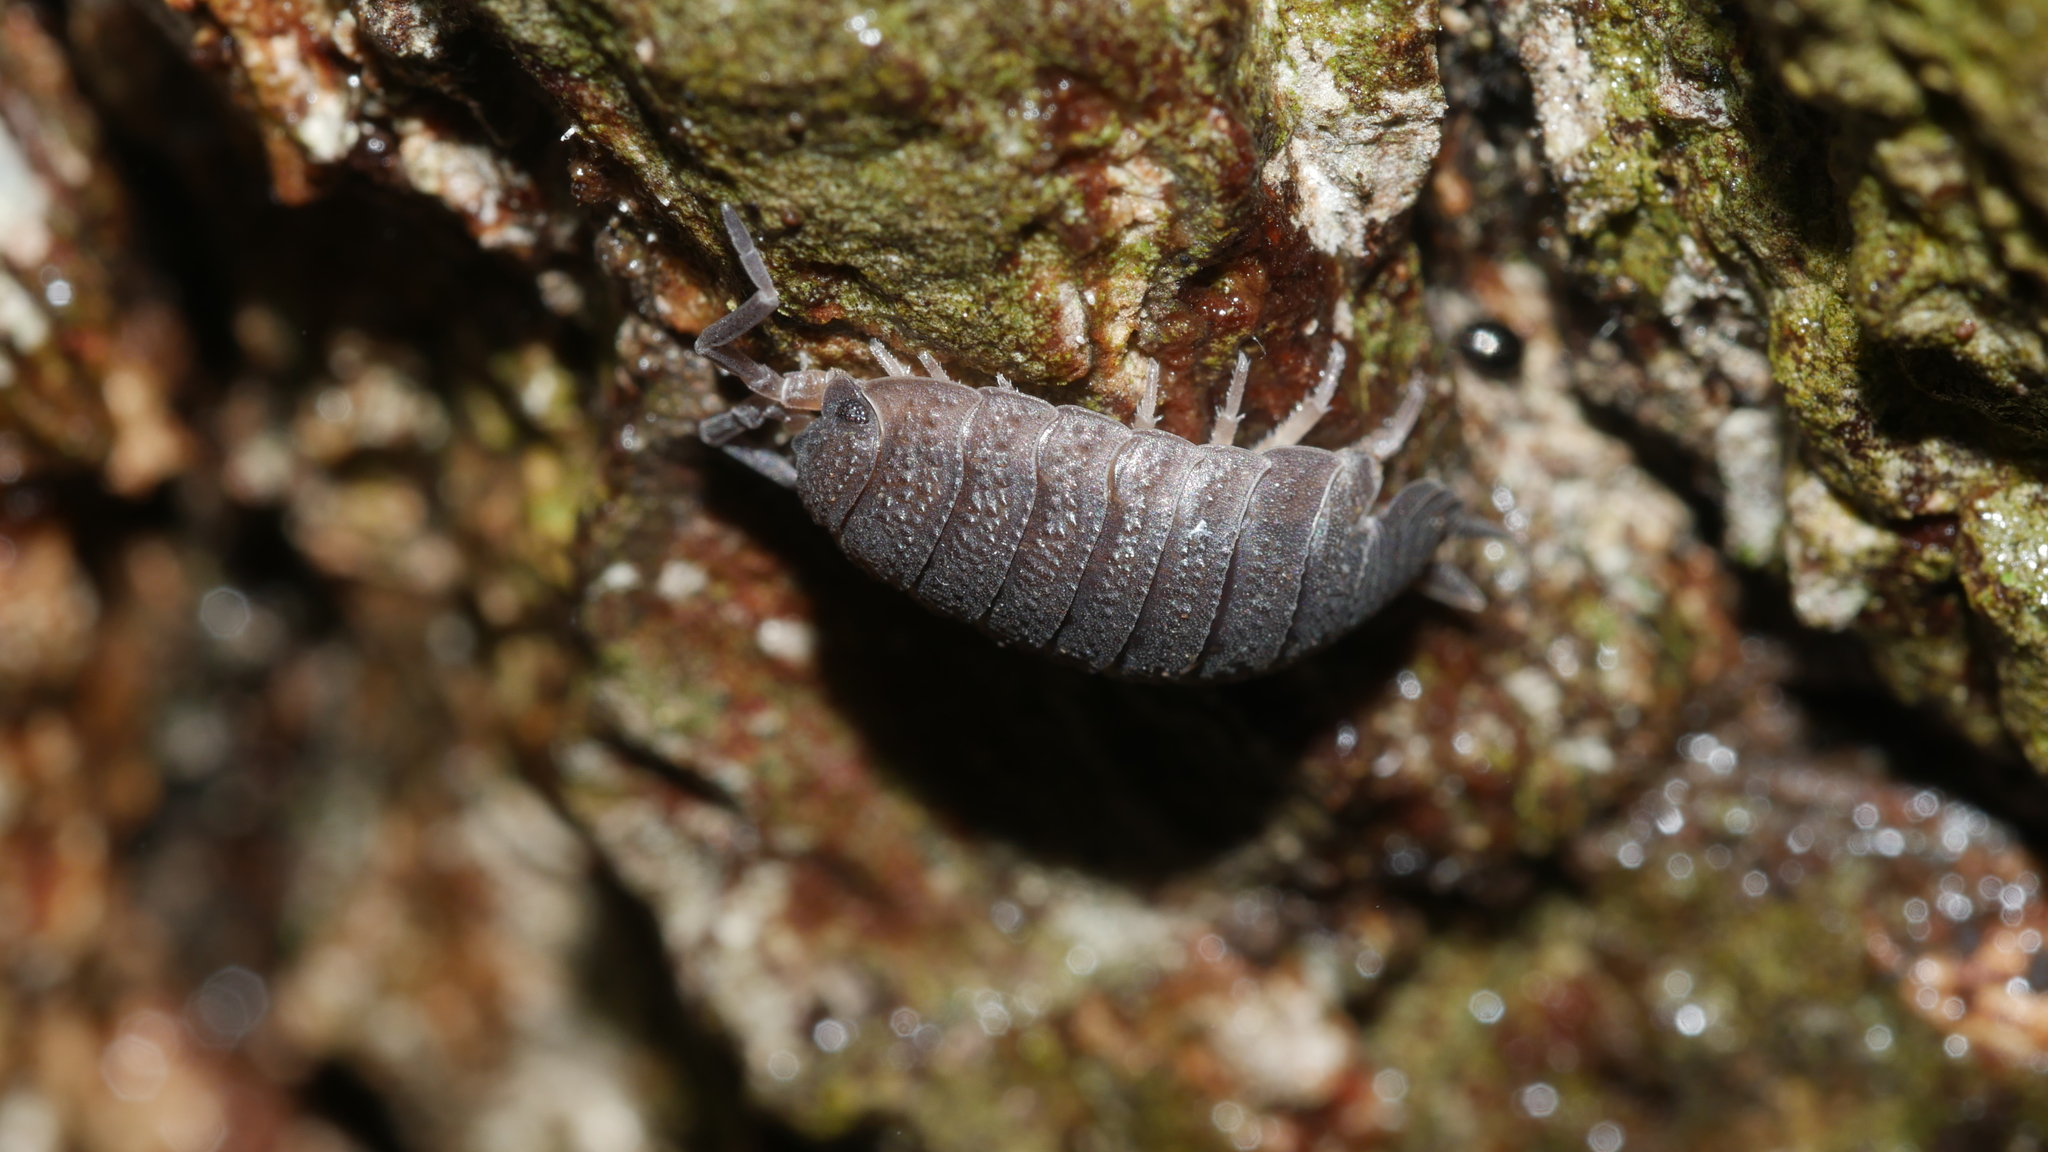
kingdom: Animalia
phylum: Arthropoda
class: Malacostraca
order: Isopoda
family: Porcellionidae
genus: Porcellio
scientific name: Porcellio scaber
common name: Common rough woodlouse
